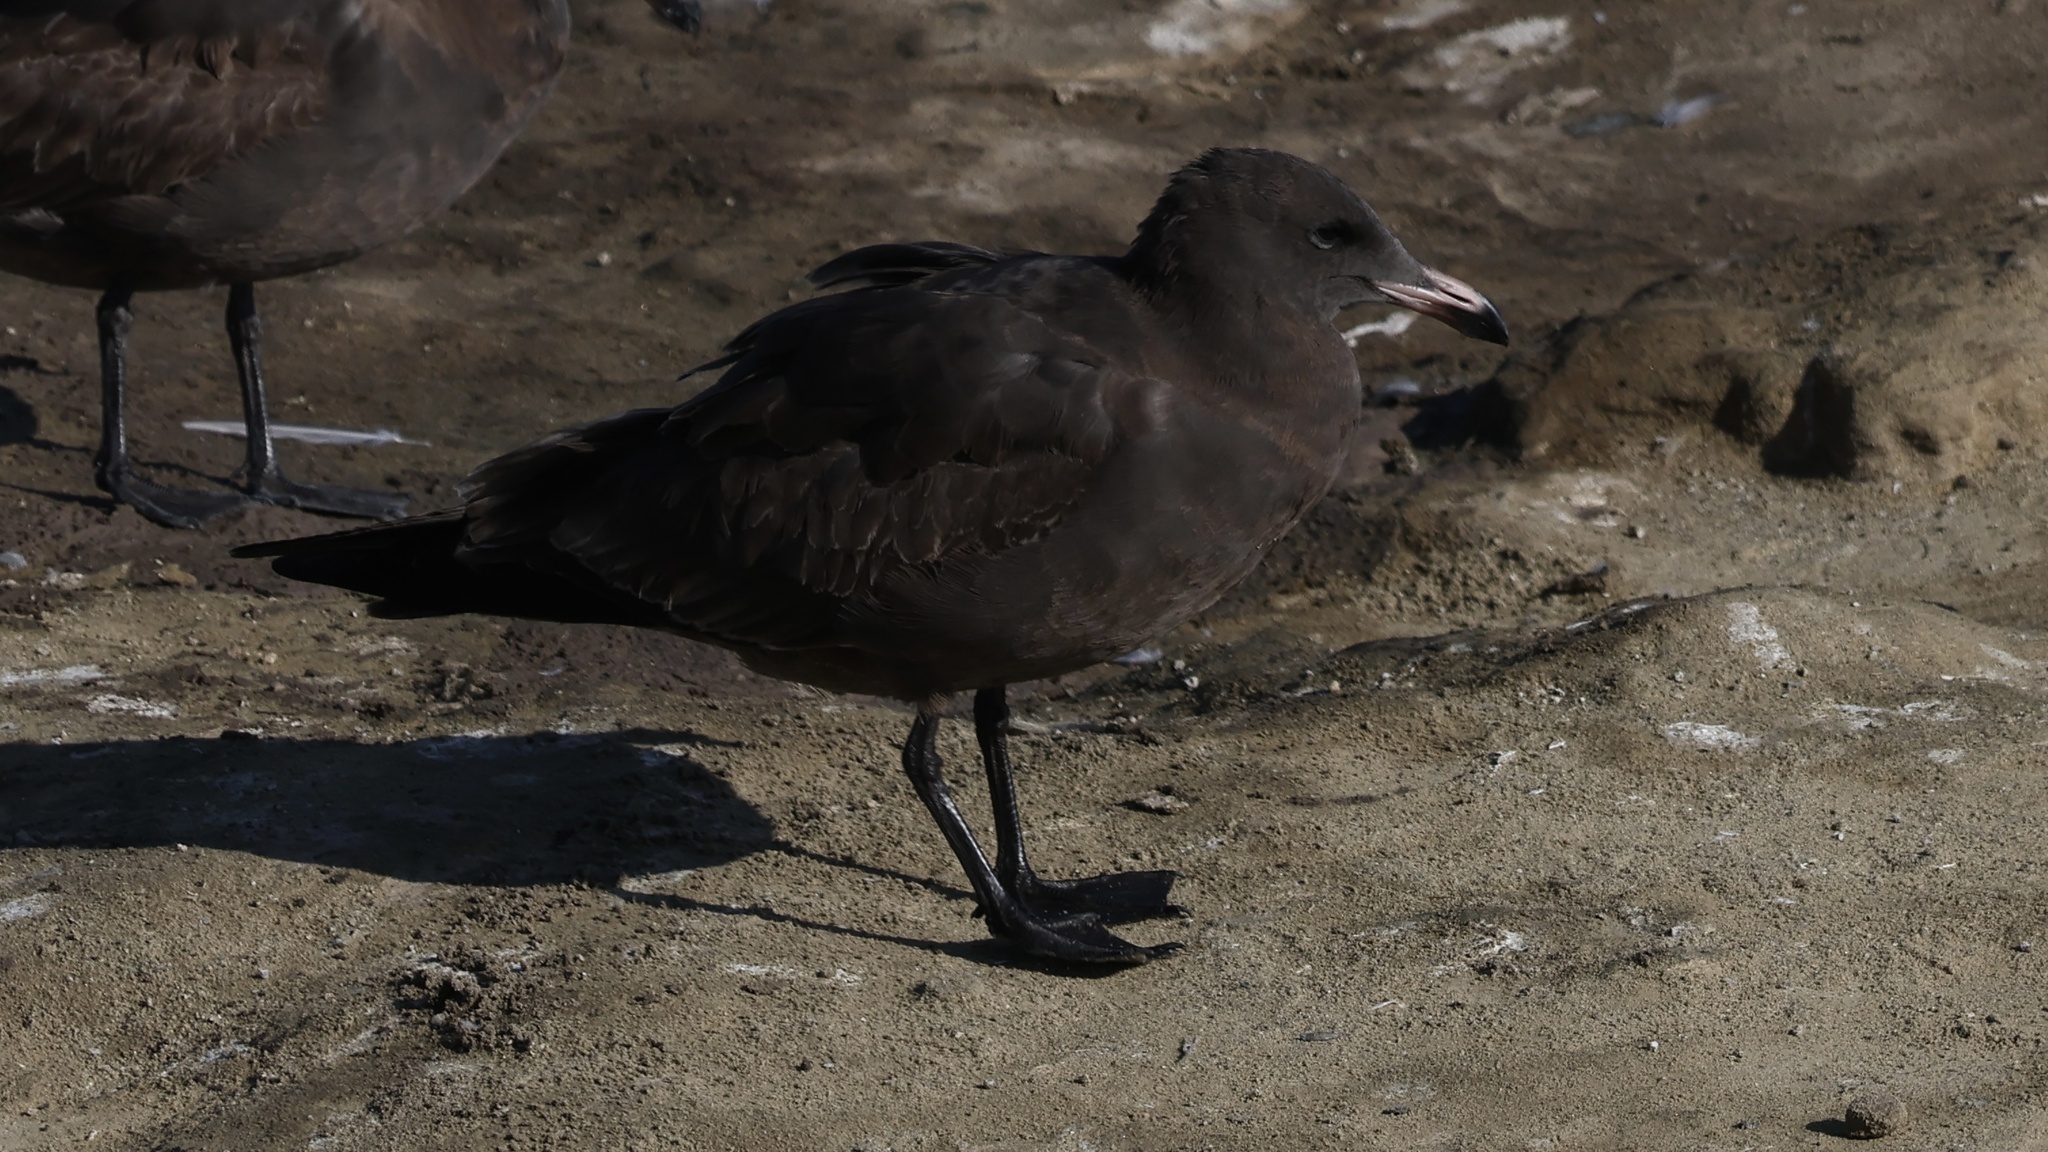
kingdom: Animalia
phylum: Chordata
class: Aves
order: Charadriiformes
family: Laridae
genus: Larus
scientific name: Larus heermanni
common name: Heermann's gull
